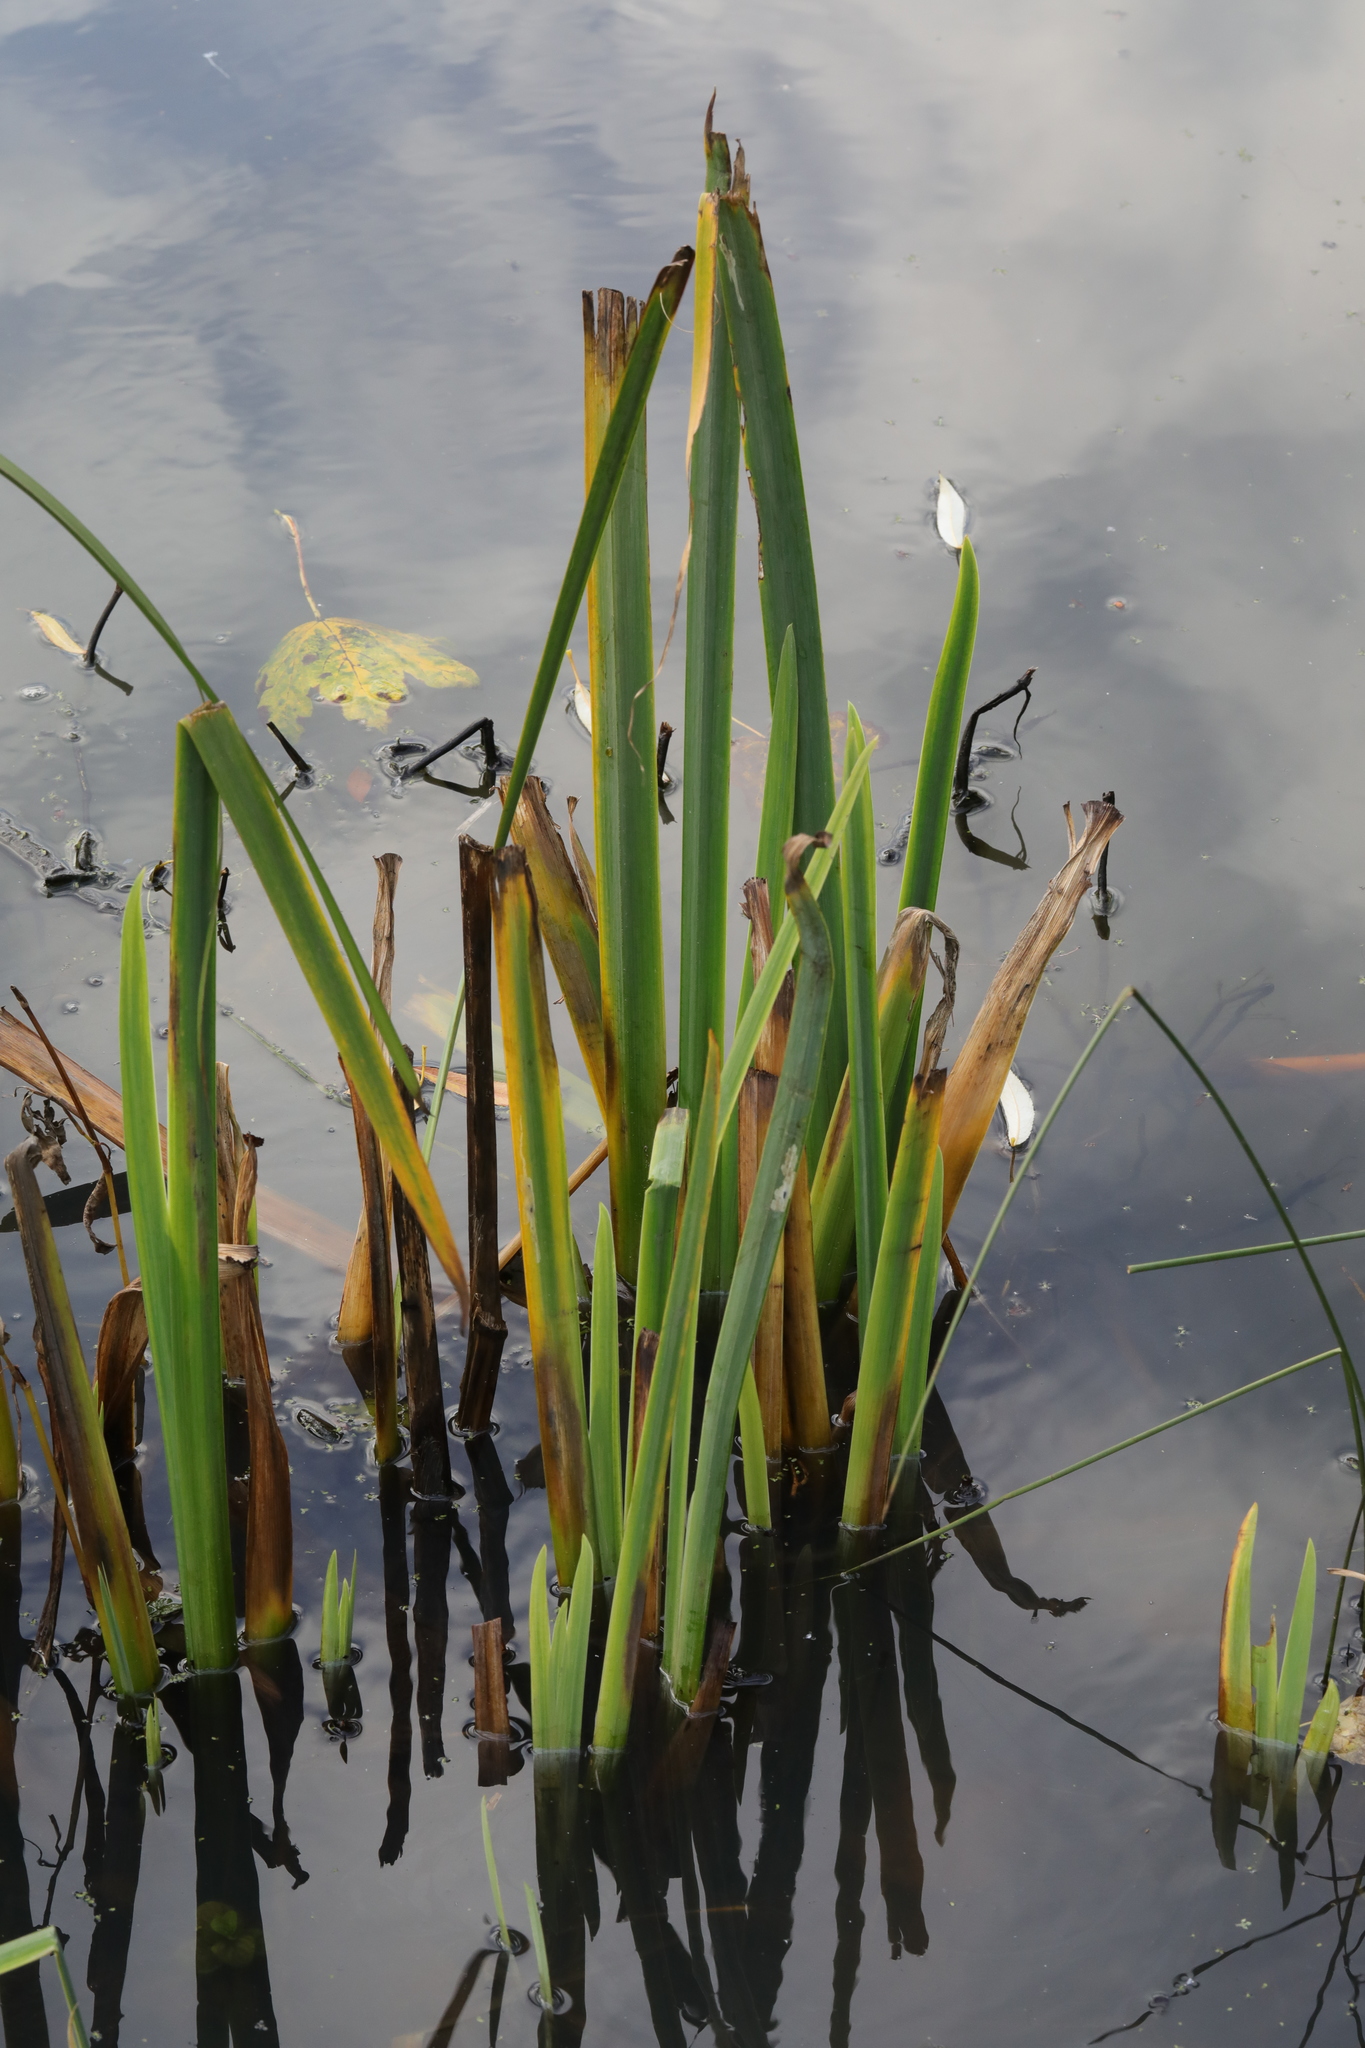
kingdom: Plantae
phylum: Tracheophyta
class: Liliopsida
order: Asparagales
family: Iridaceae
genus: Iris
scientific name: Iris pseudacorus
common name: Yellow flag
